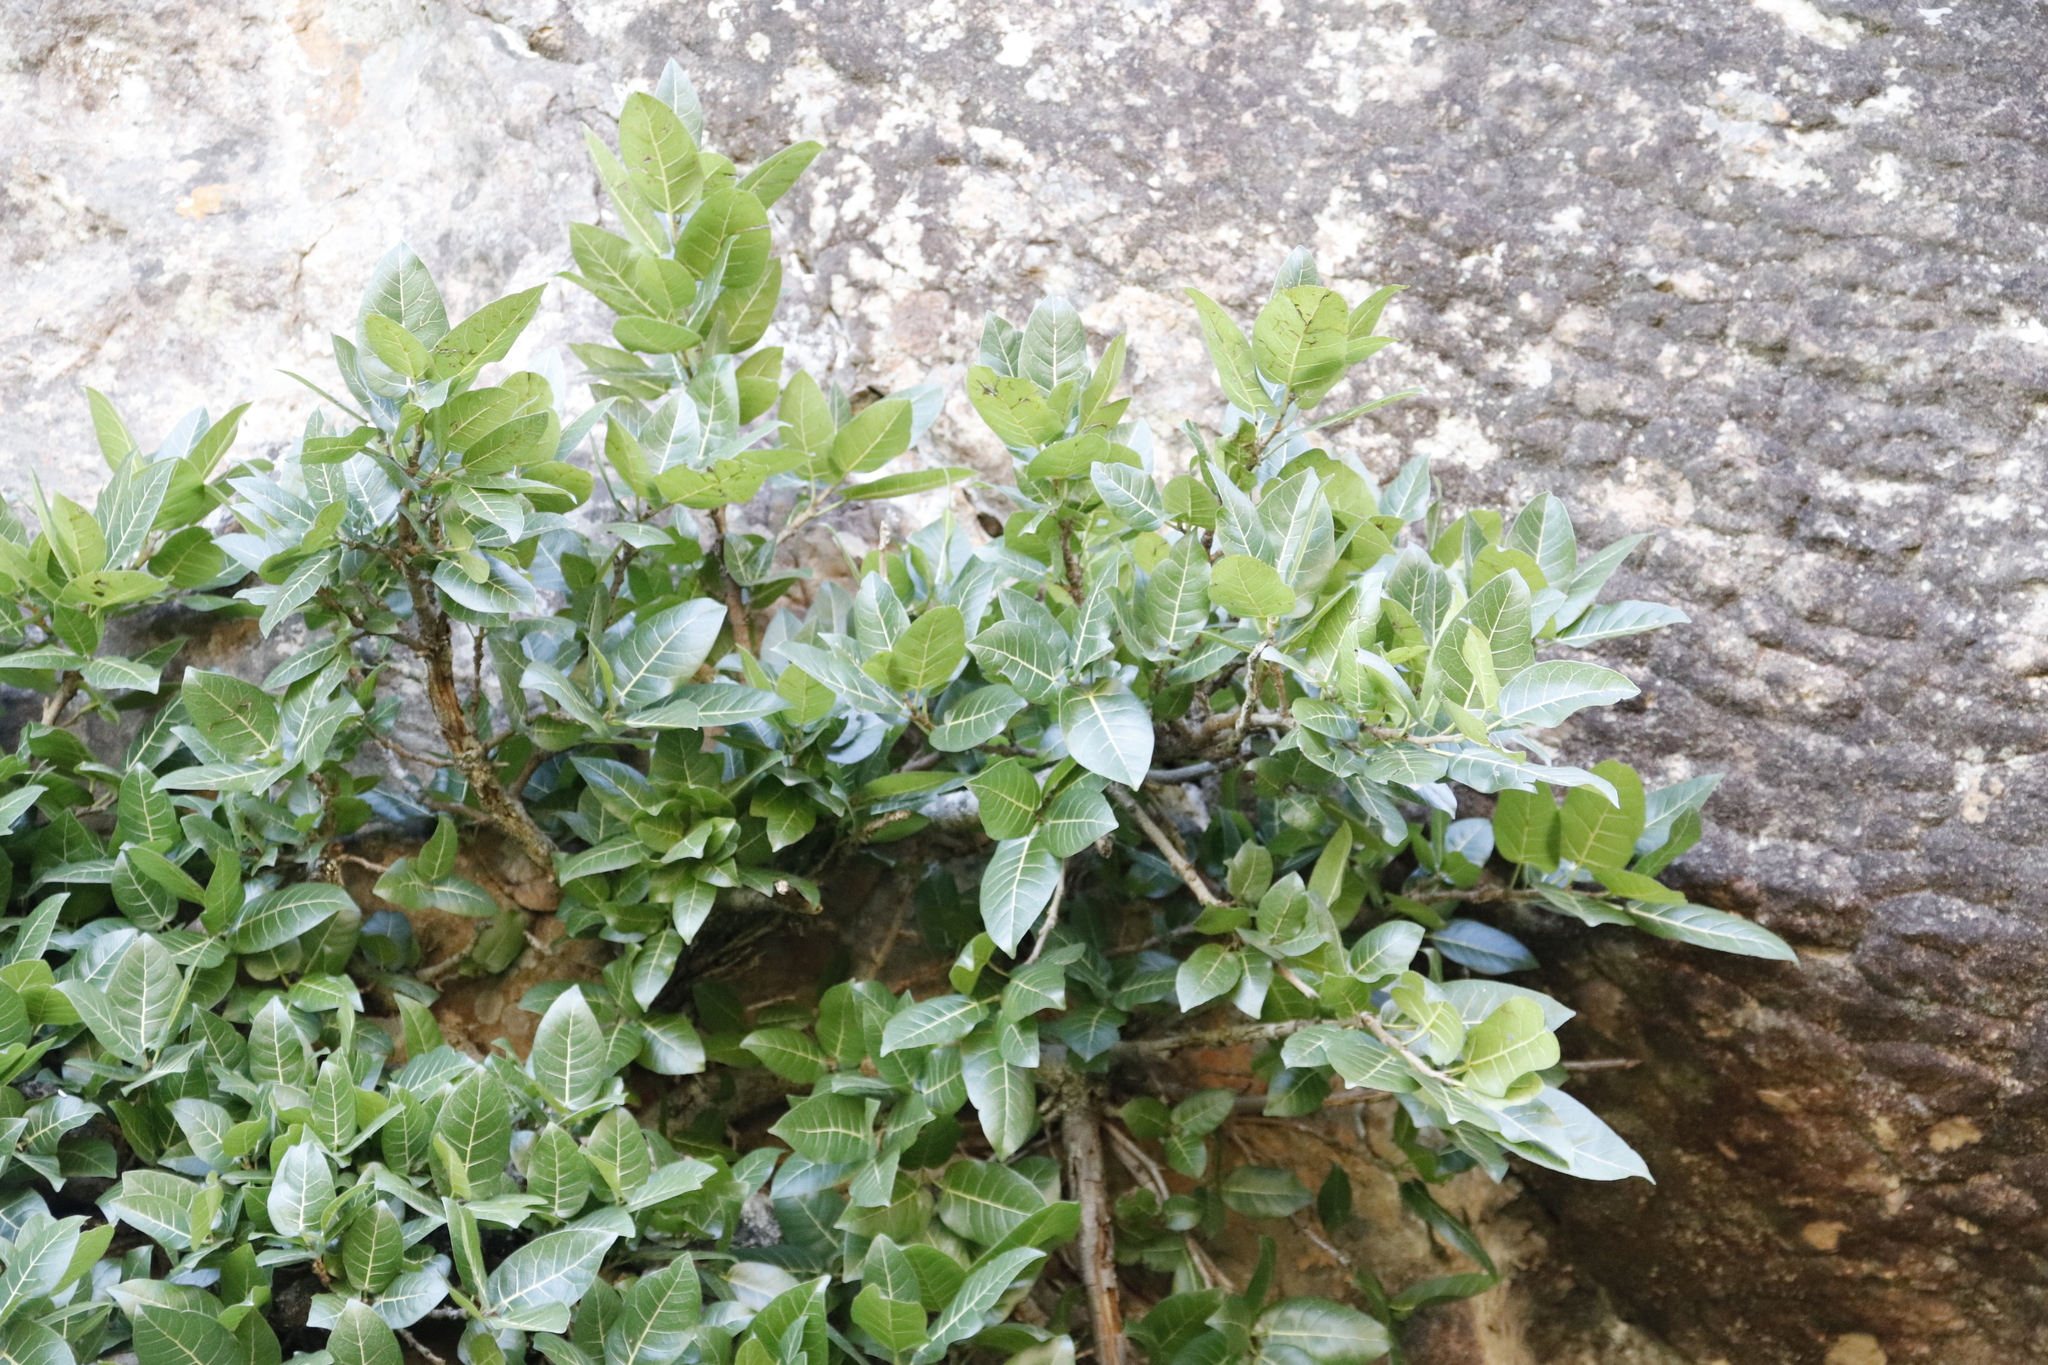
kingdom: Plantae
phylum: Tracheophyta
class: Magnoliopsida
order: Rosales
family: Moraceae
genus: Ficus
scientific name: Ficus ingens
